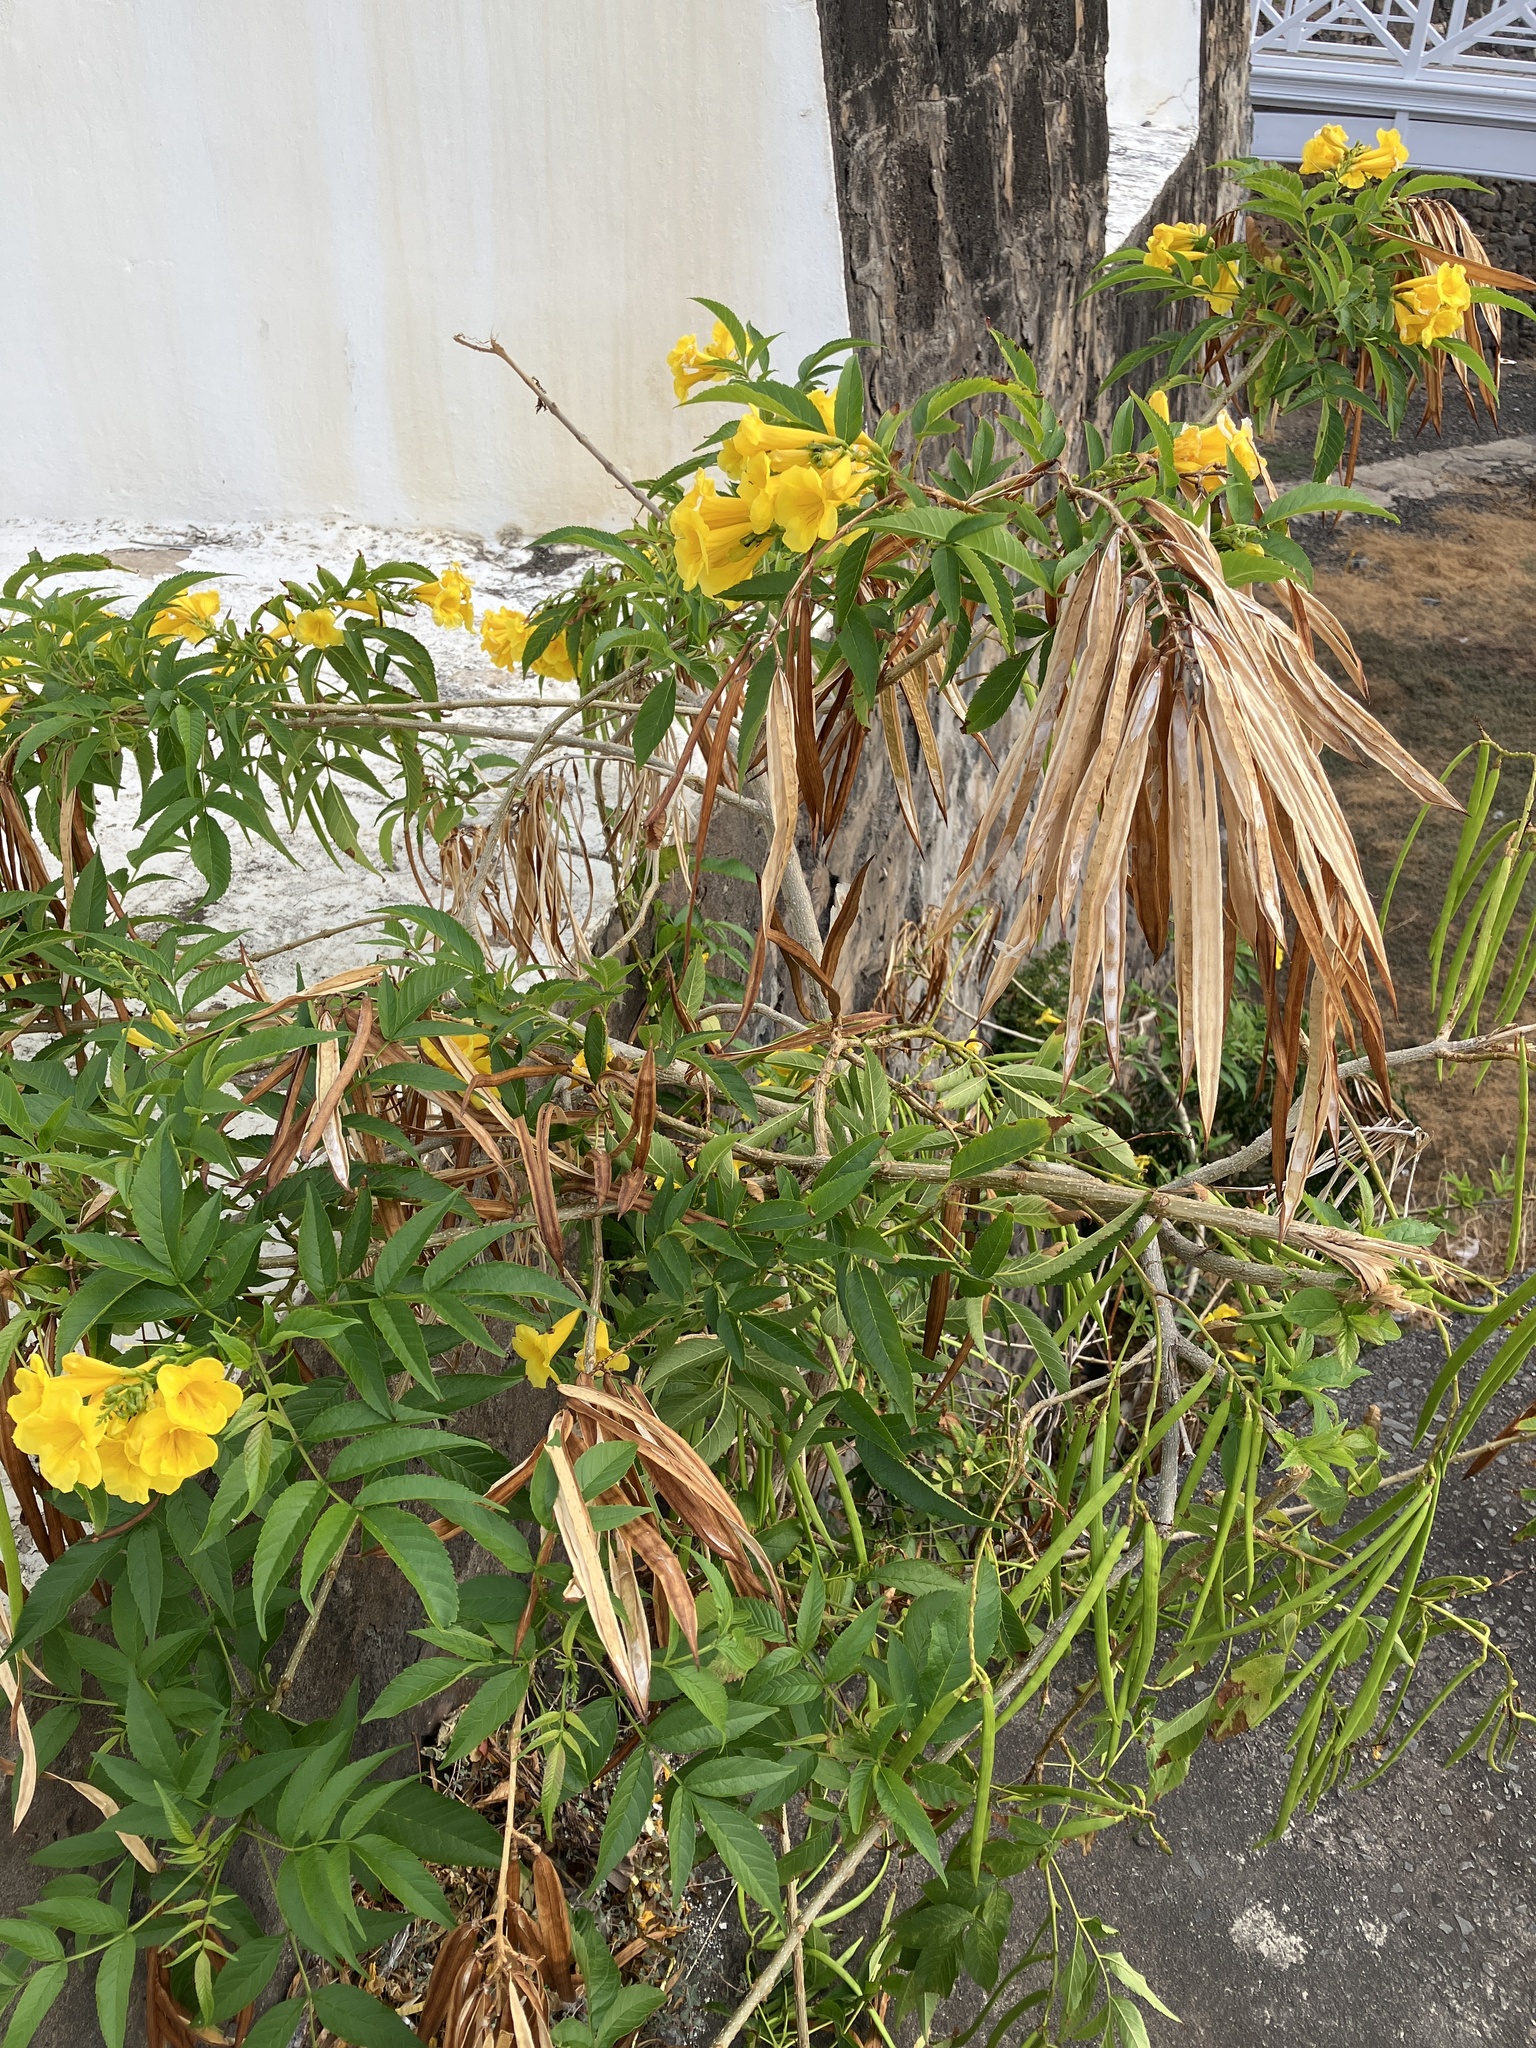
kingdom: Plantae
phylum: Tracheophyta
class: Magnoliopsida
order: Lamiales
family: Bignoniaceae
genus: Tecoma
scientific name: Tecoma stans
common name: Yellow trumpetbush
